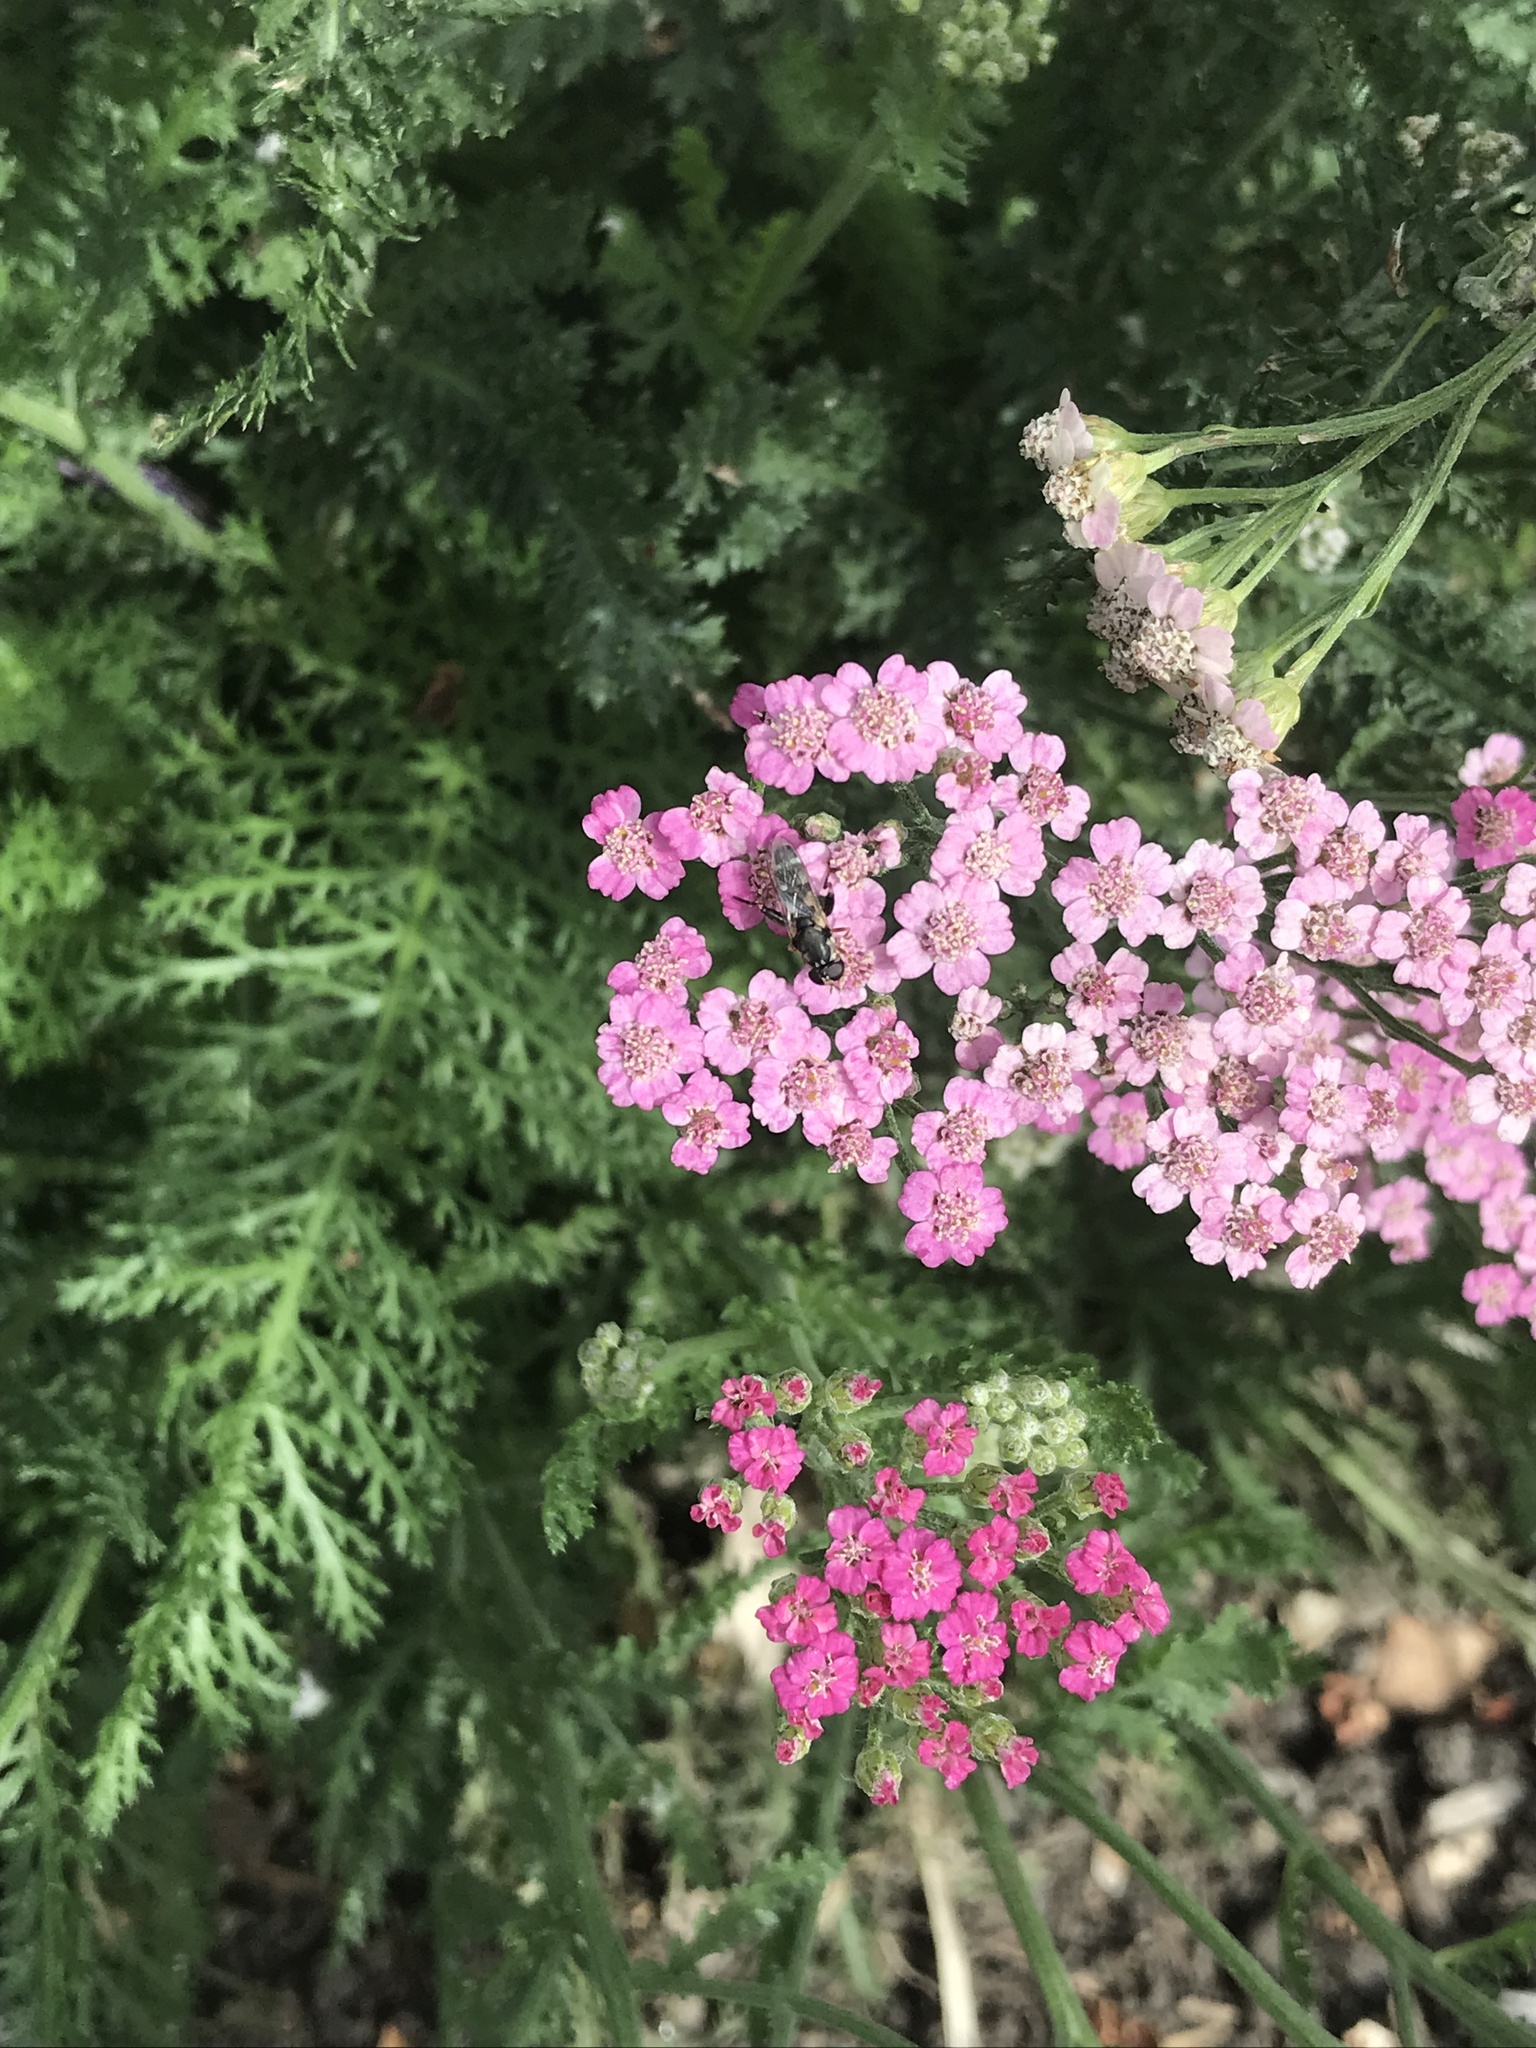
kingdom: Animalia
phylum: Arthropoda
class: Insecta
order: Diptera
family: Syrphidae
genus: Syritta
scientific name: Syritta pipiens
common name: Hover fly
